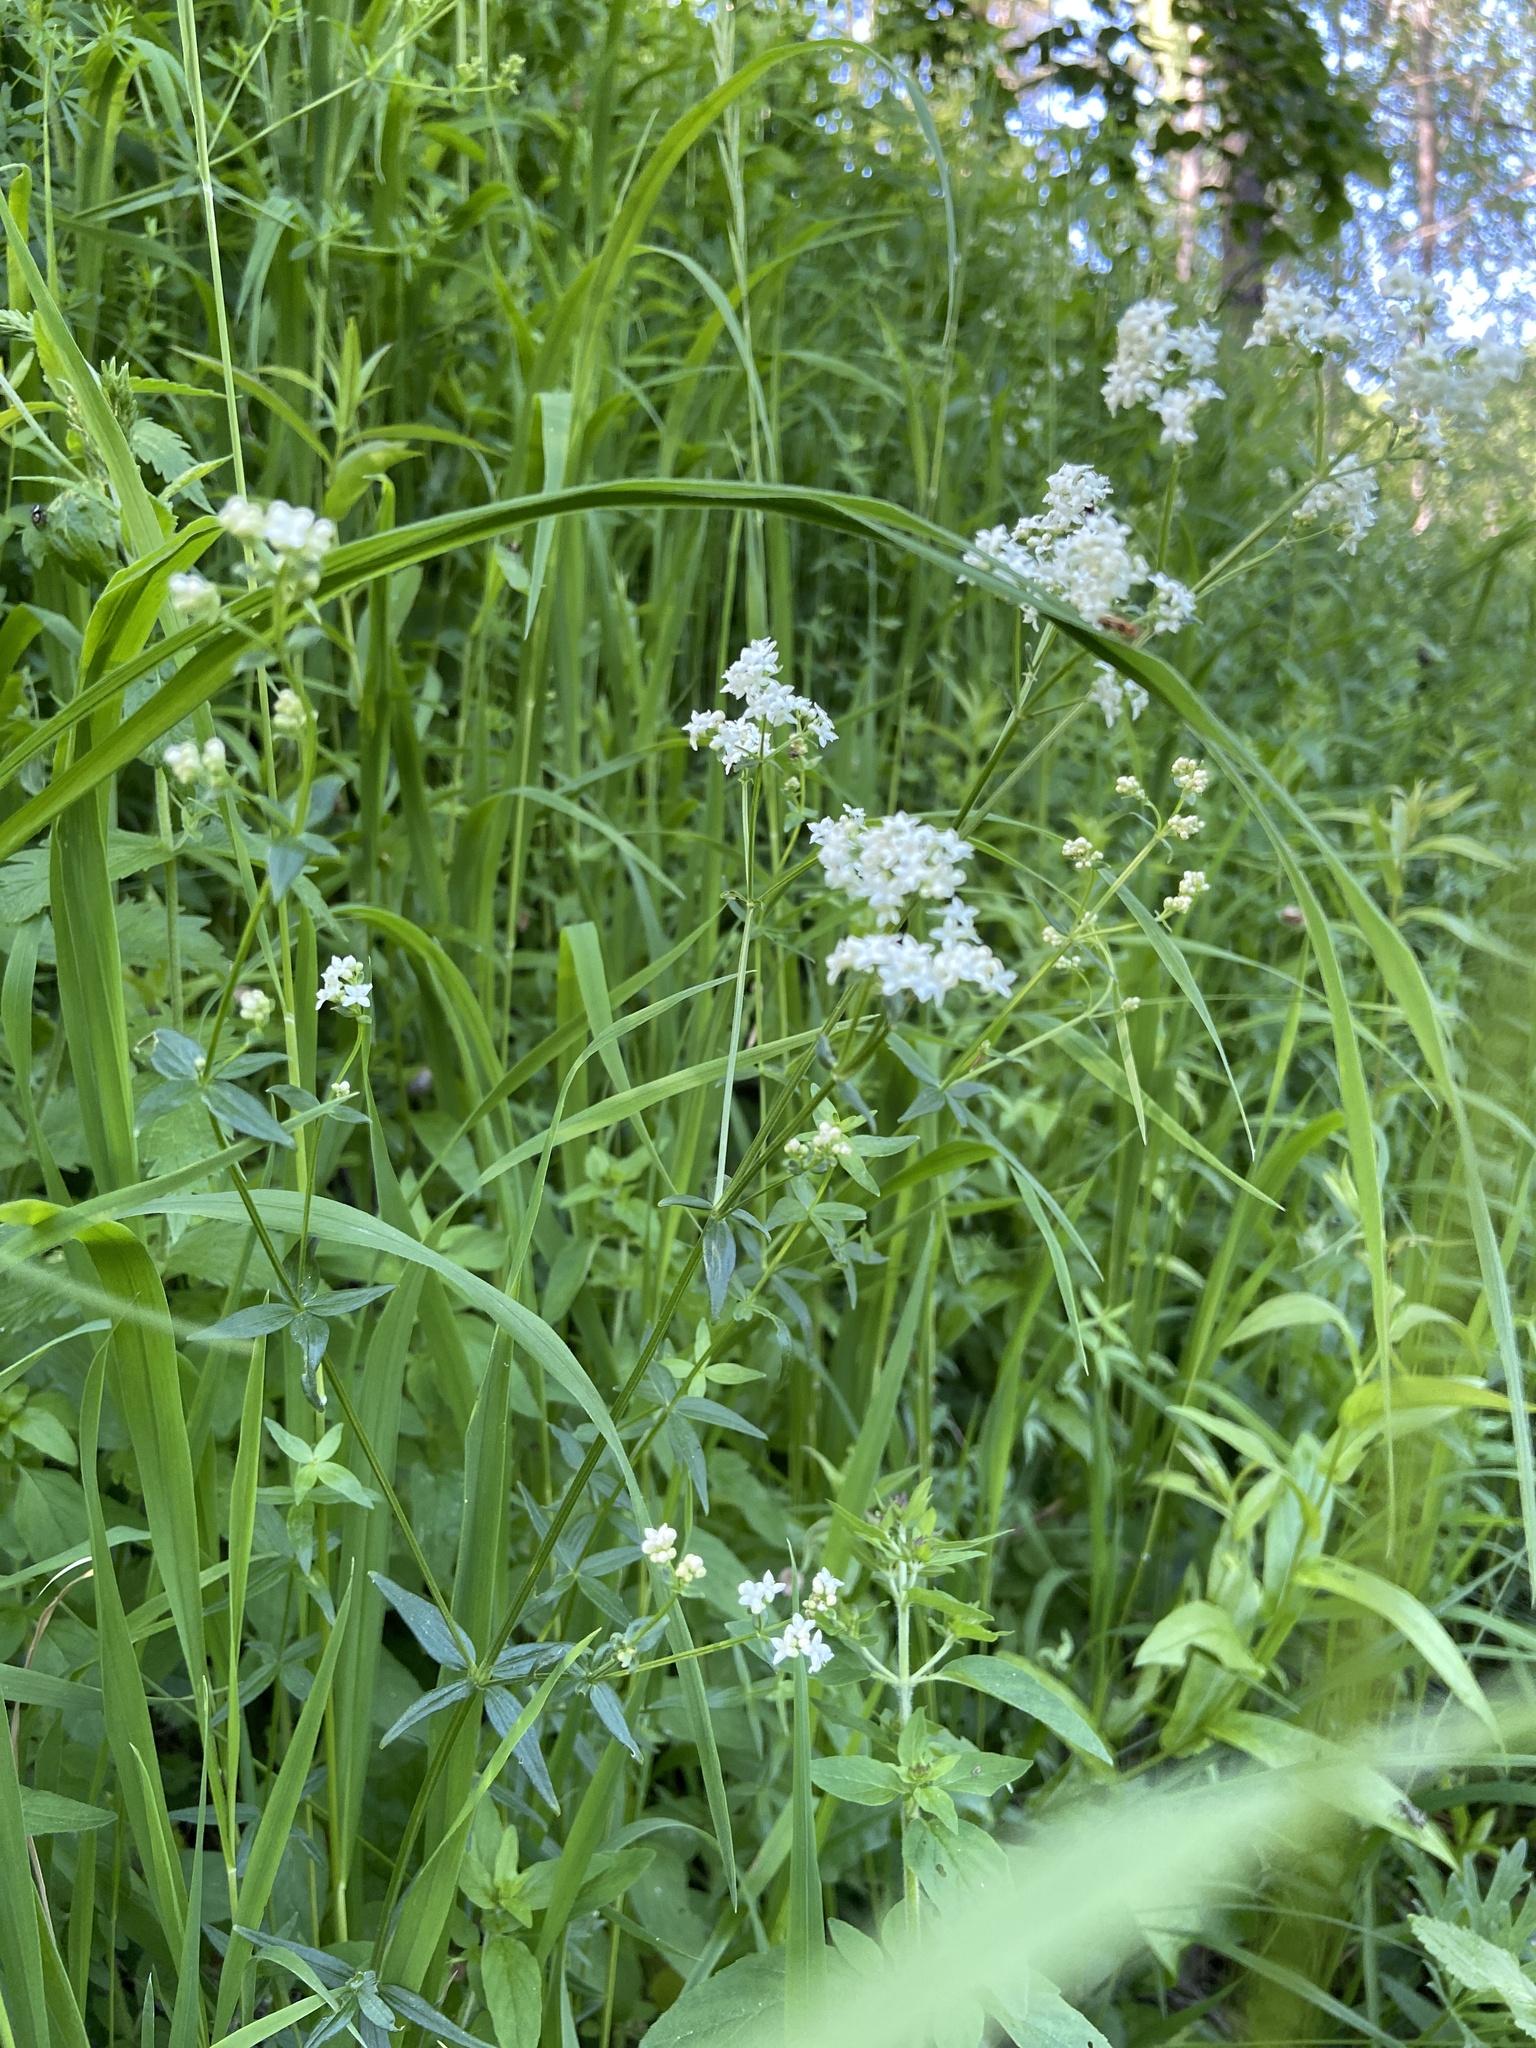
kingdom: Plantae
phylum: Tracheophyta
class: Magnoliopsida
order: Gentianales
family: Rubiaceae
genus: Galium
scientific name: Galium boreale
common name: Northern bedstraw
